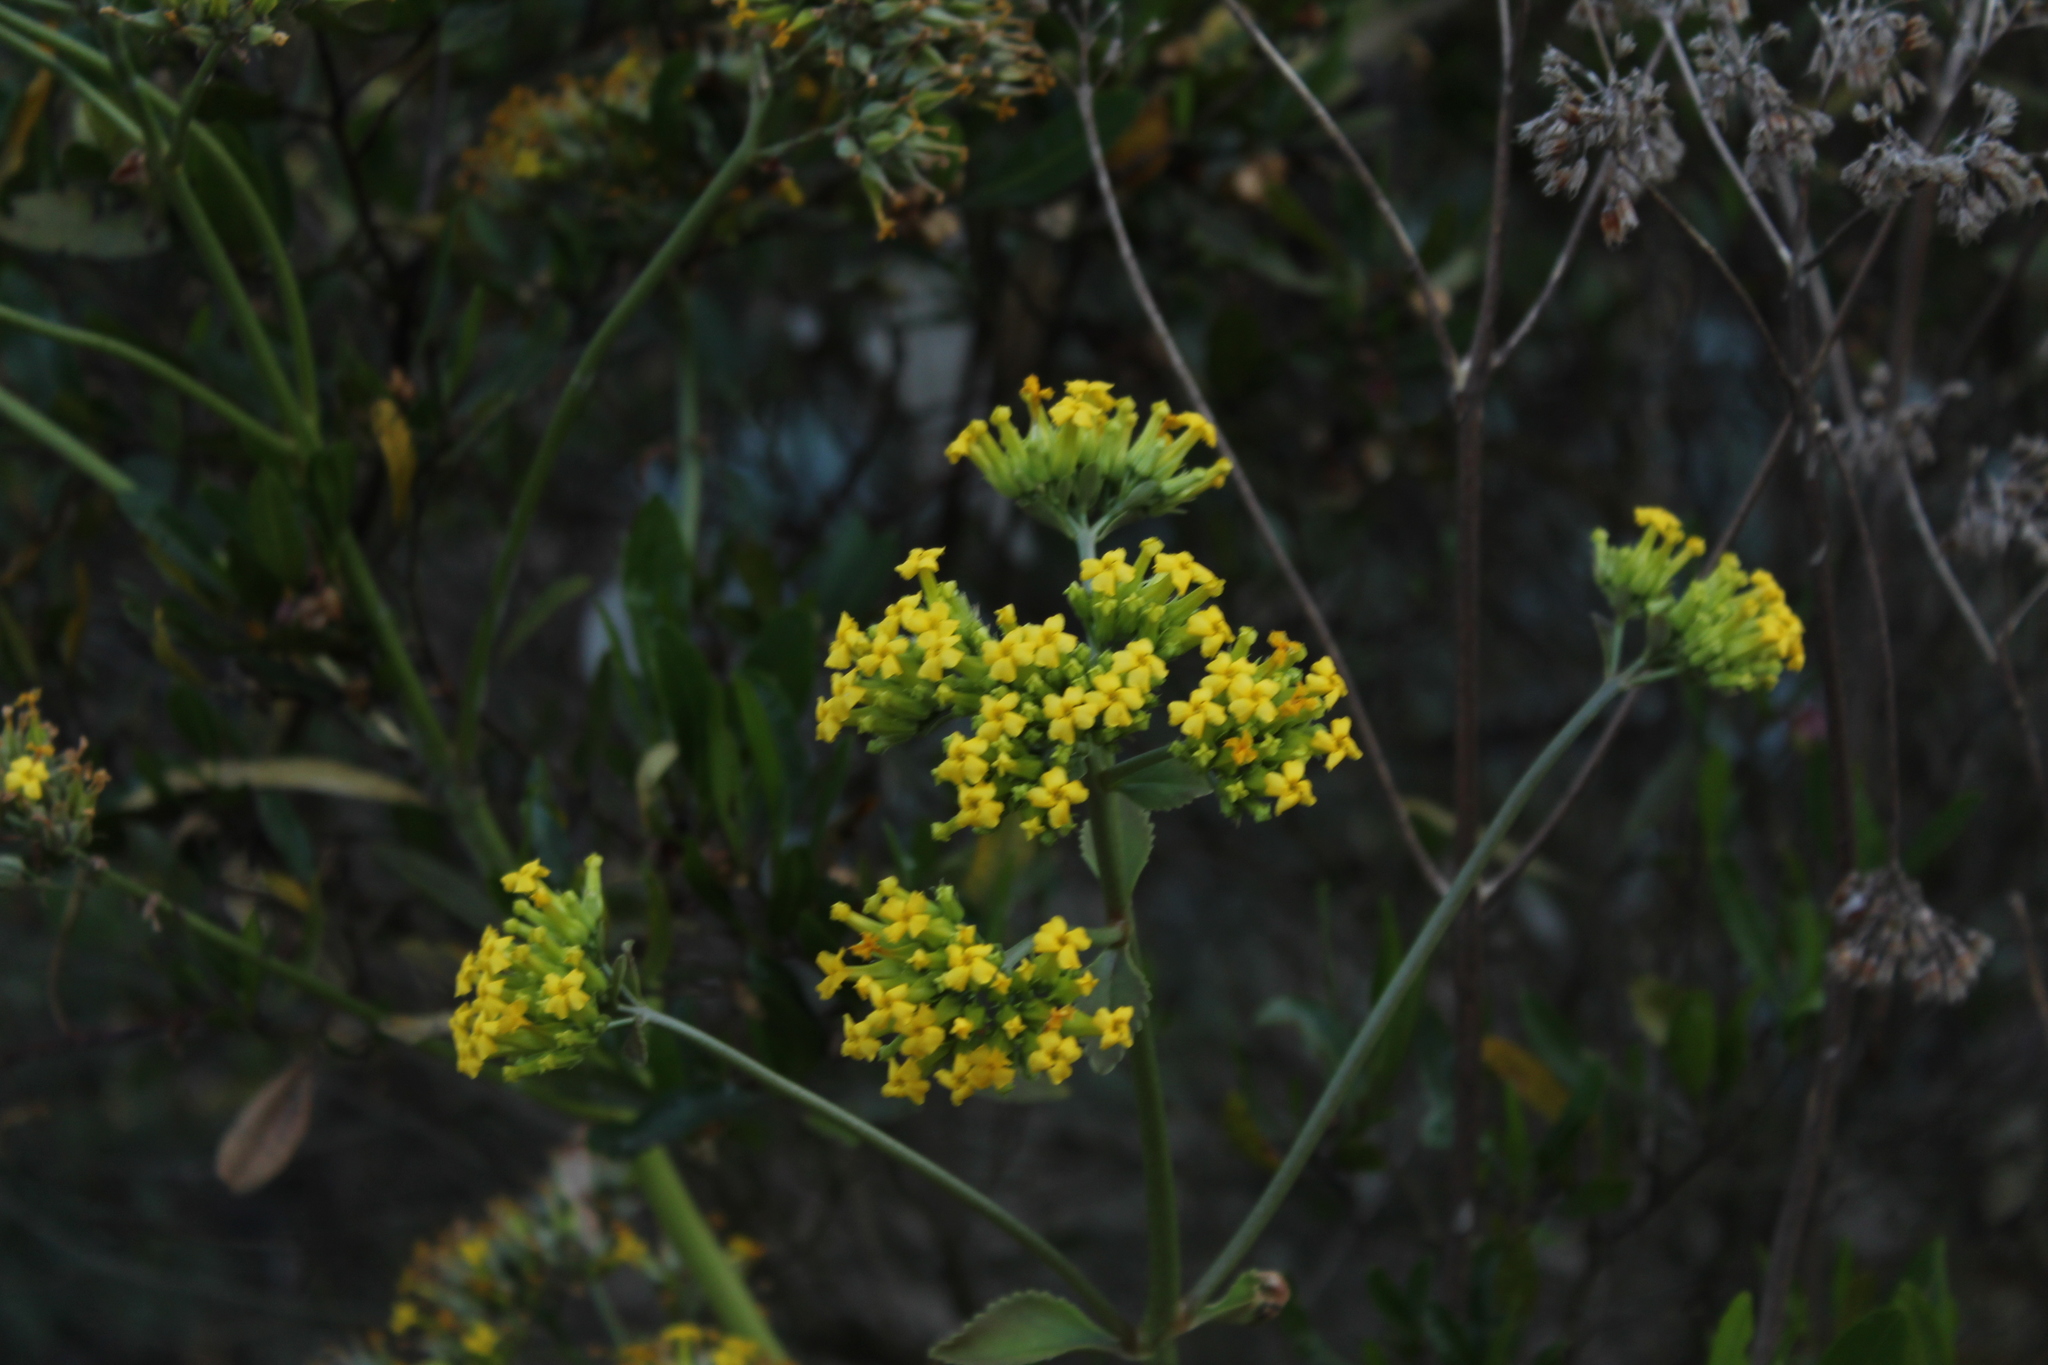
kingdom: Plantae
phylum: Tracheophyta
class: Magnoliopsida
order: Saxifragales
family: Crassulaceae
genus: Kalanchoe
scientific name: Kalanchoe densiflora
